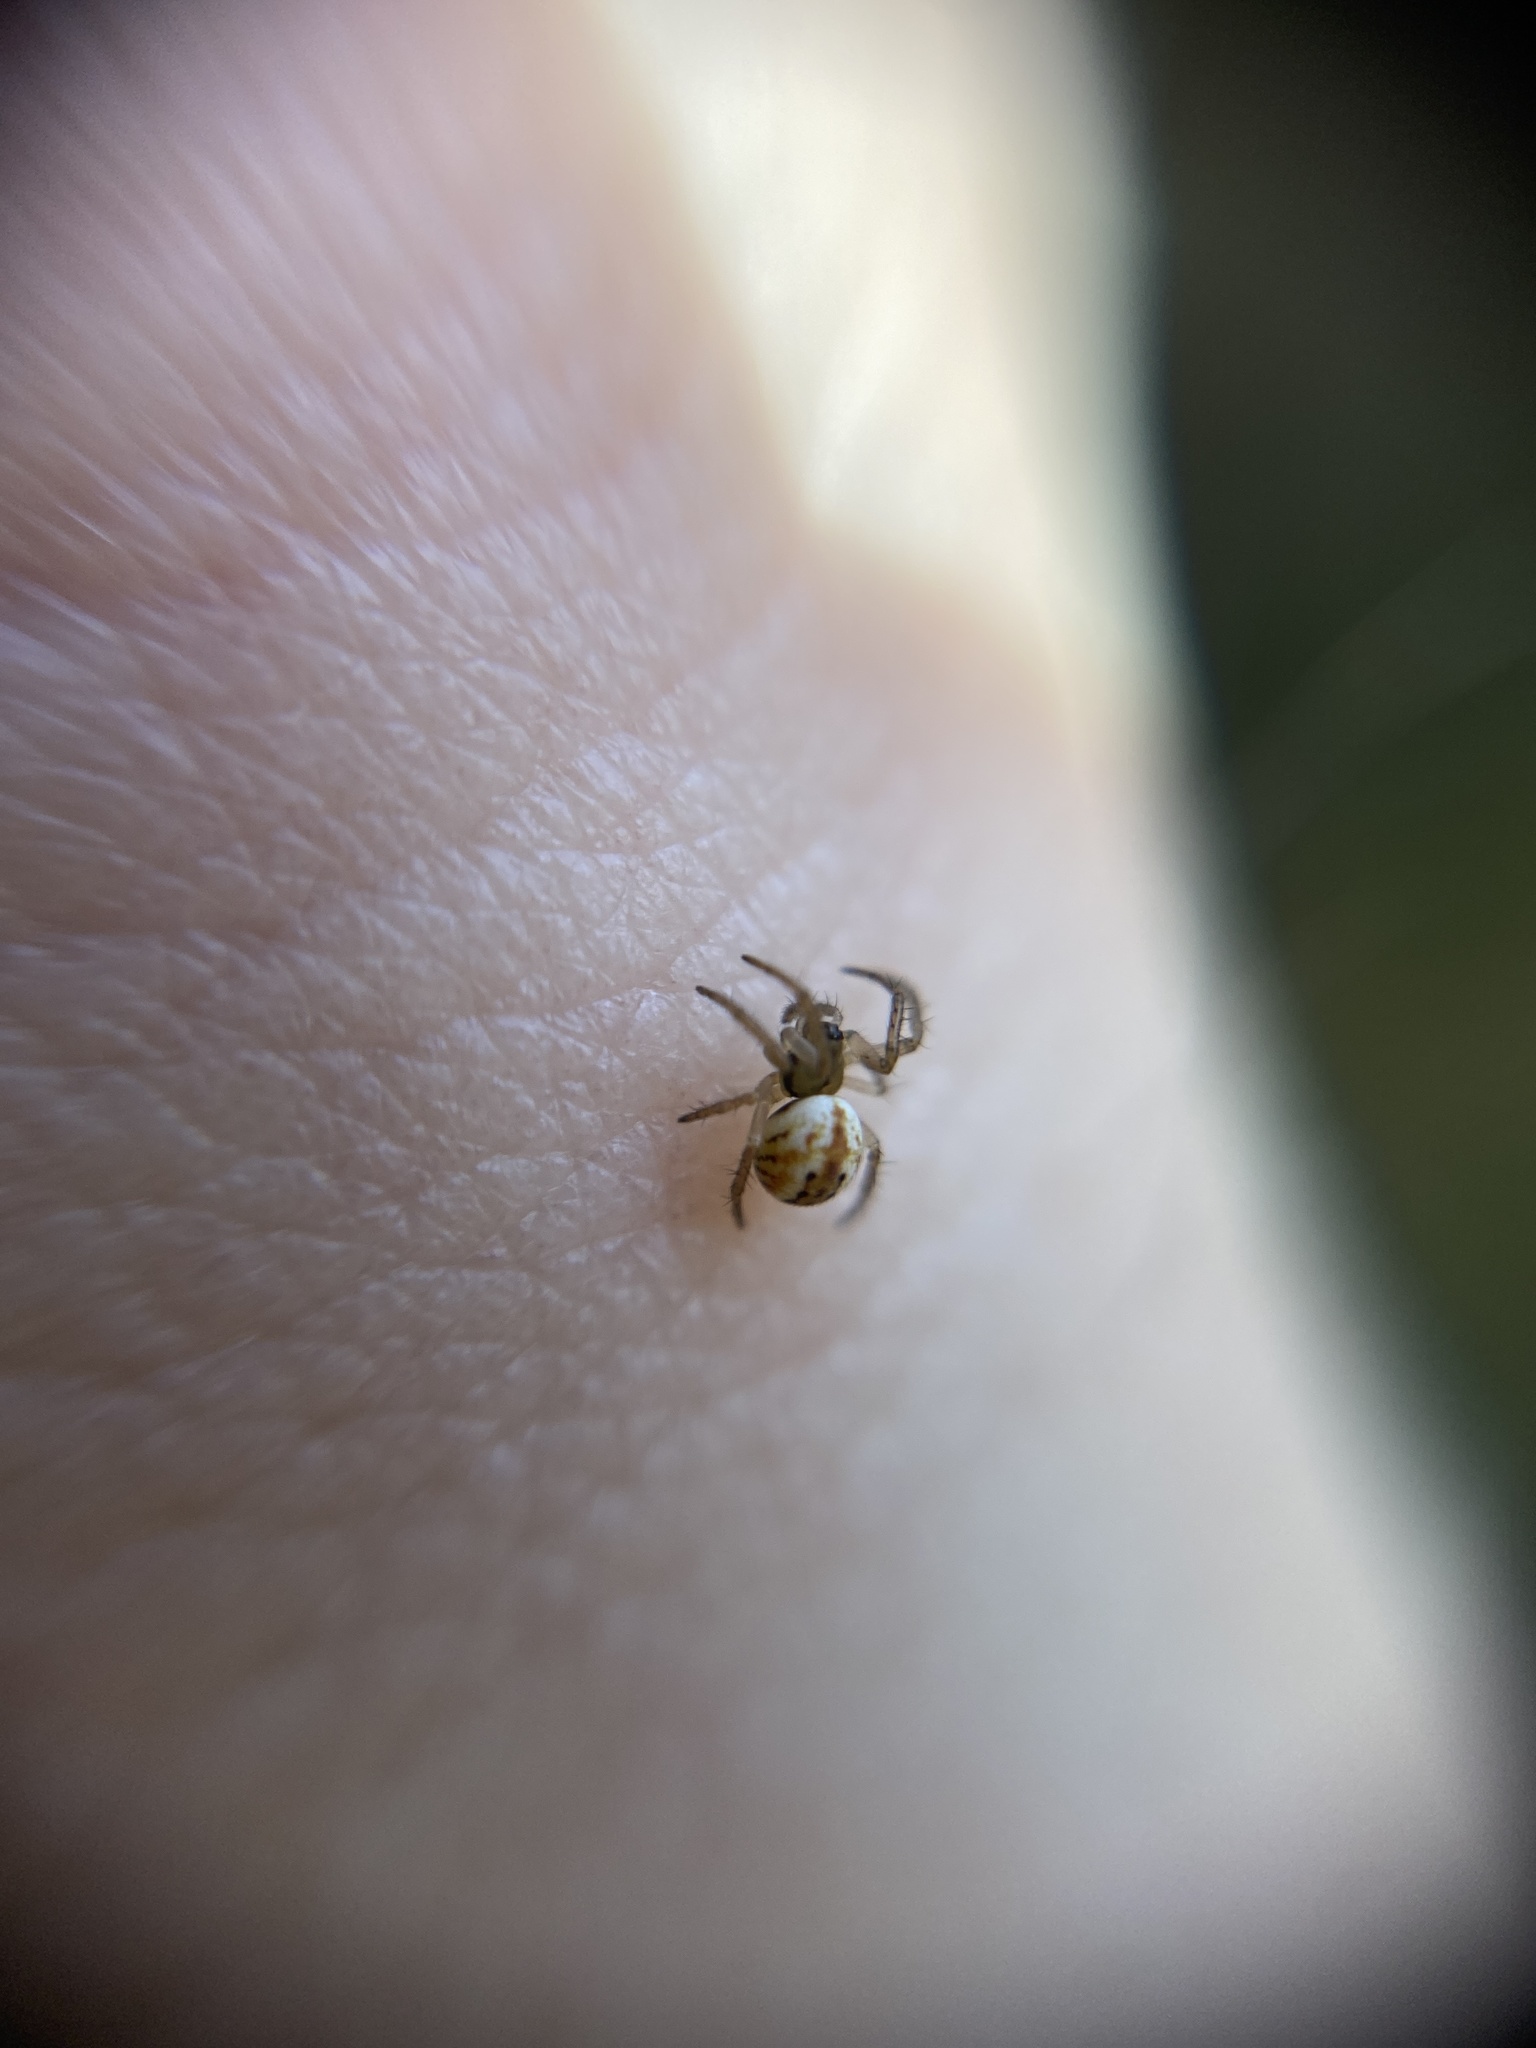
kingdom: Animalia
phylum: Arthropoda
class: Arachnida
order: Araneae
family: Araneidae
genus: Mangora
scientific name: Mangora acalypha
